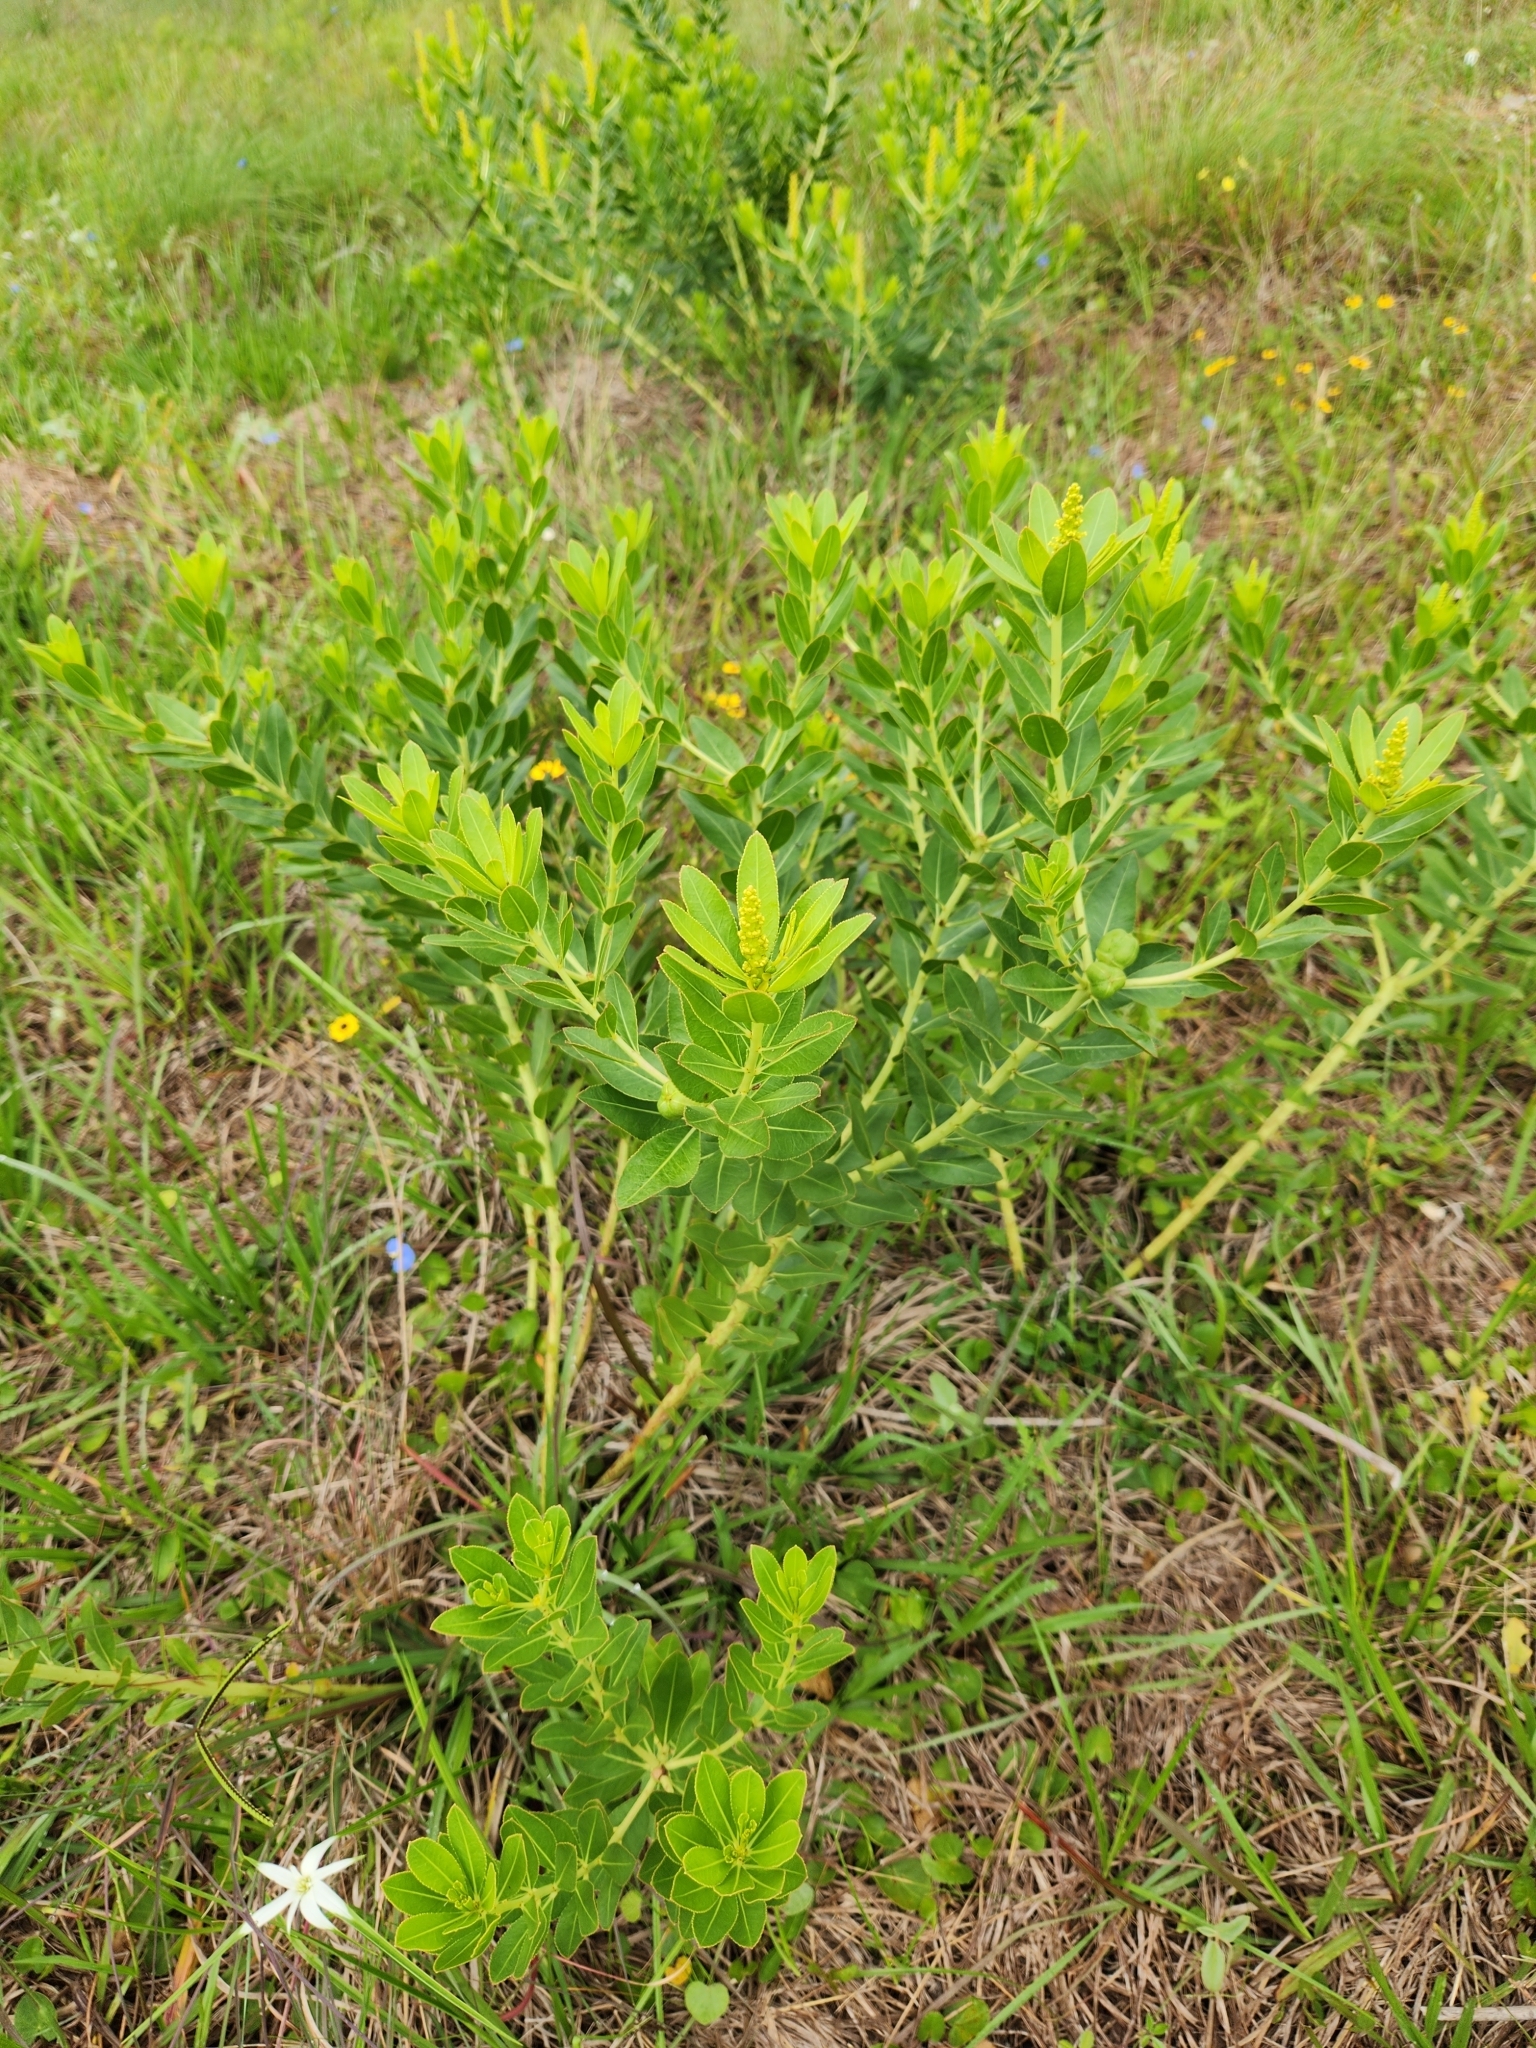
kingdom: Plantae
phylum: Tracheophyta
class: Magnoliopsida
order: Malpighiales
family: Euphorbiaceae
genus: Stillingia
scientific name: Stillingia sylvatica
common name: Queen's-delight
